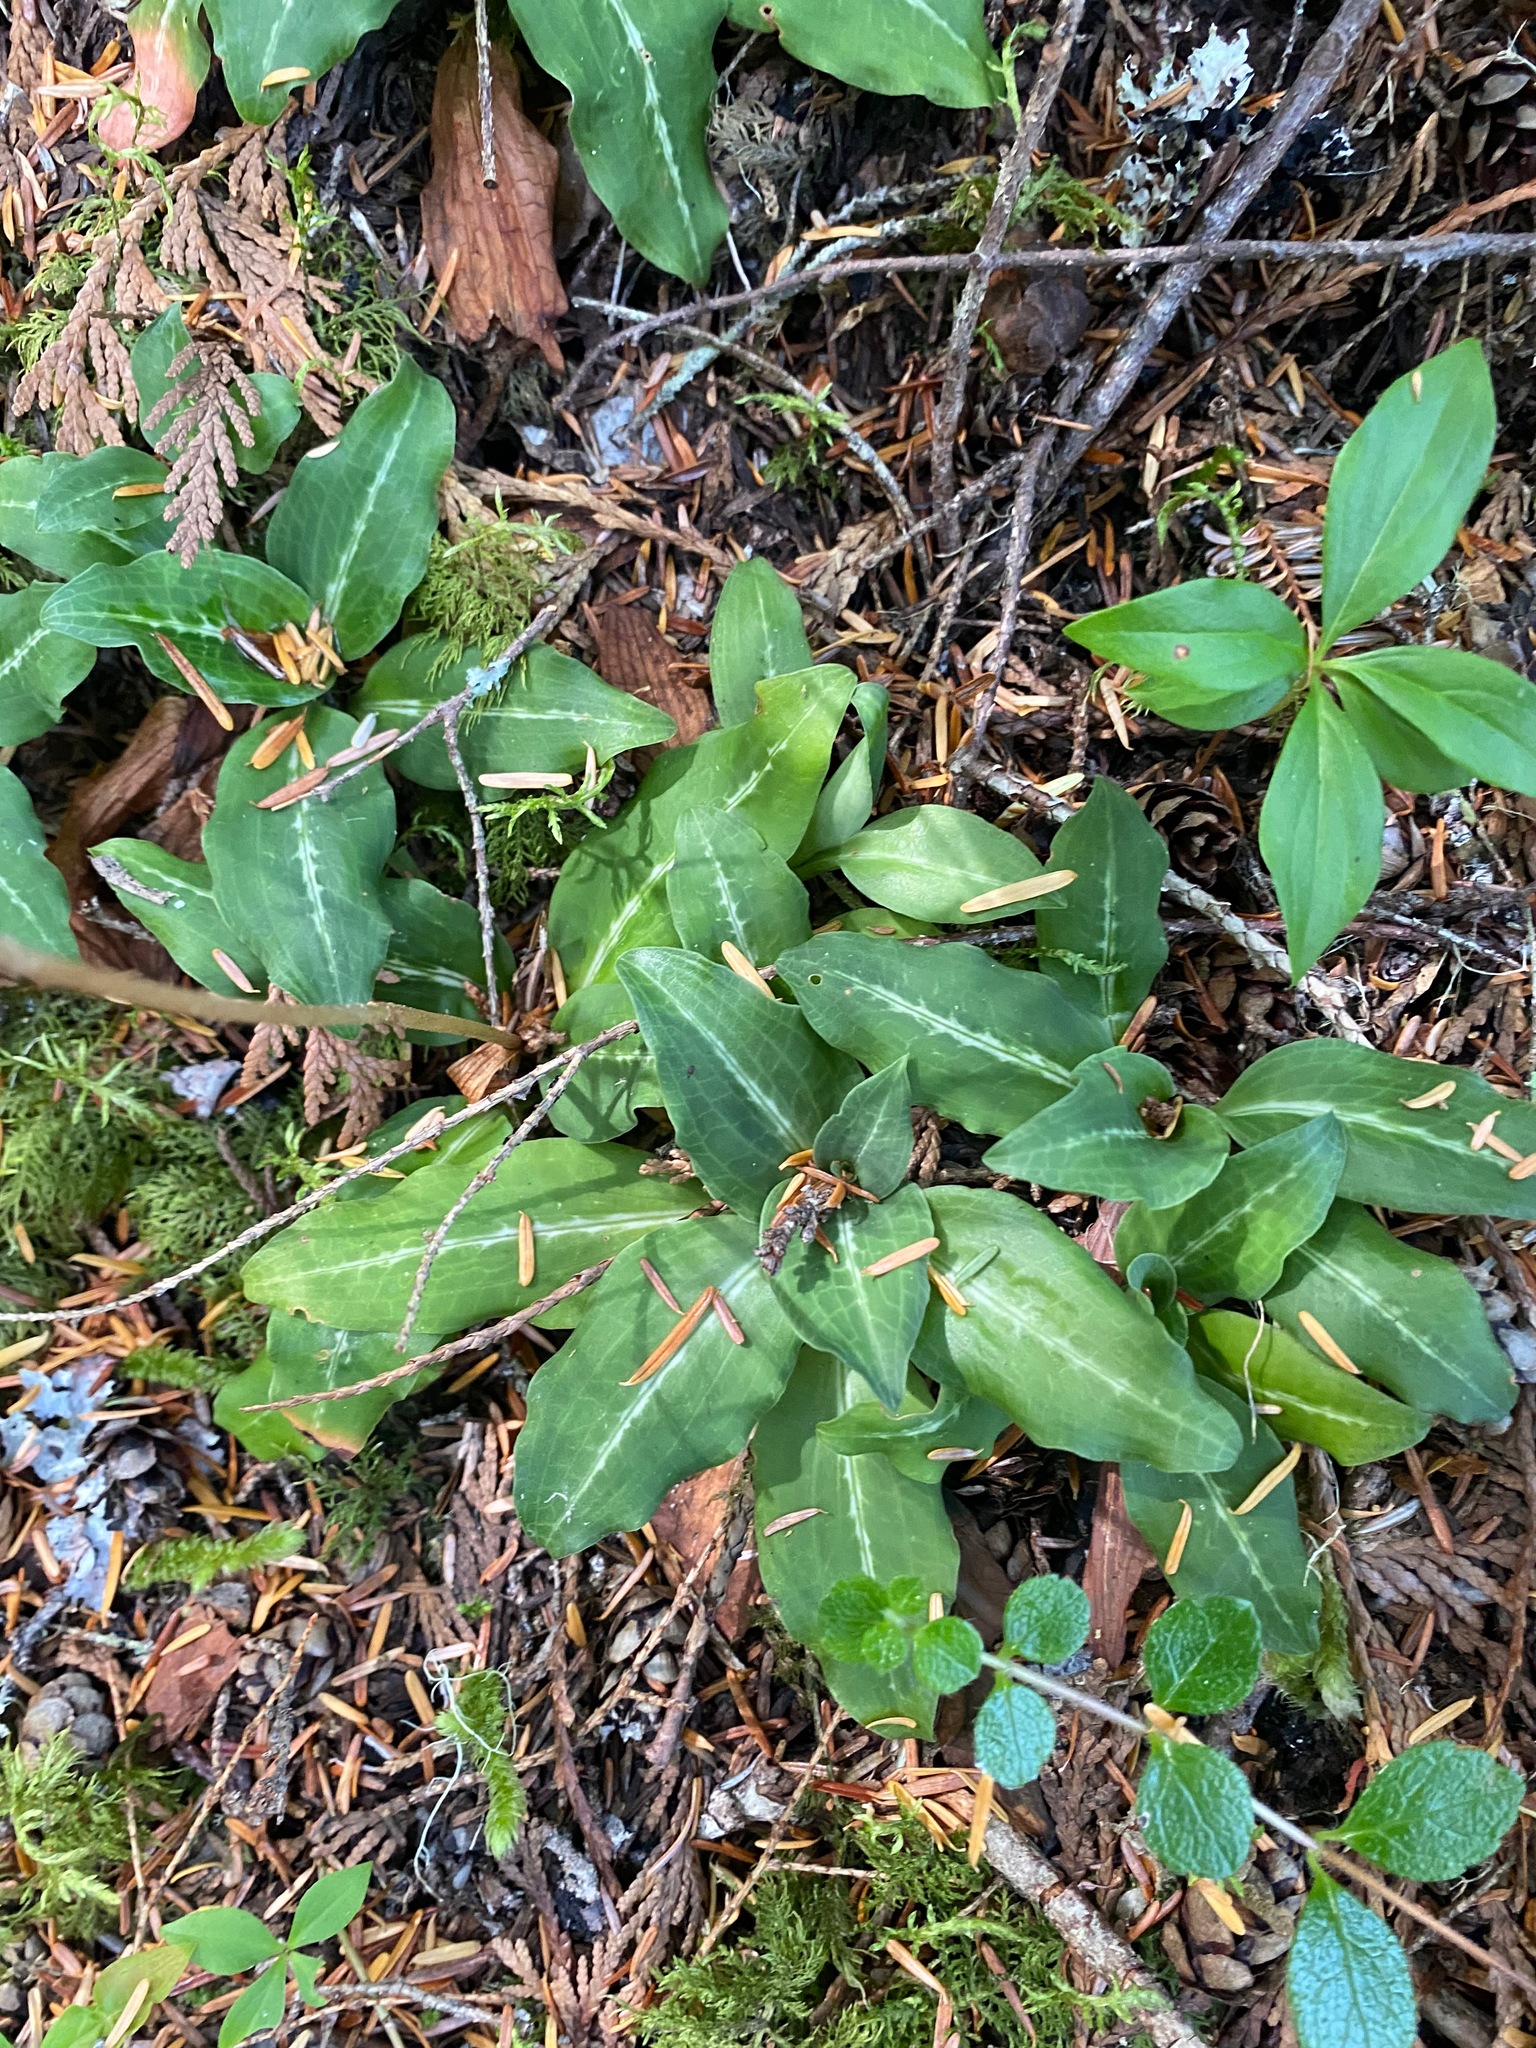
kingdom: Plantae
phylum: Tracheophyta
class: Liliopsida
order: Asparagales
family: Orchidaceae
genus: Goodyera
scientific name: Goodyera oblongifolia
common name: Giant rattlesnake-plantain
